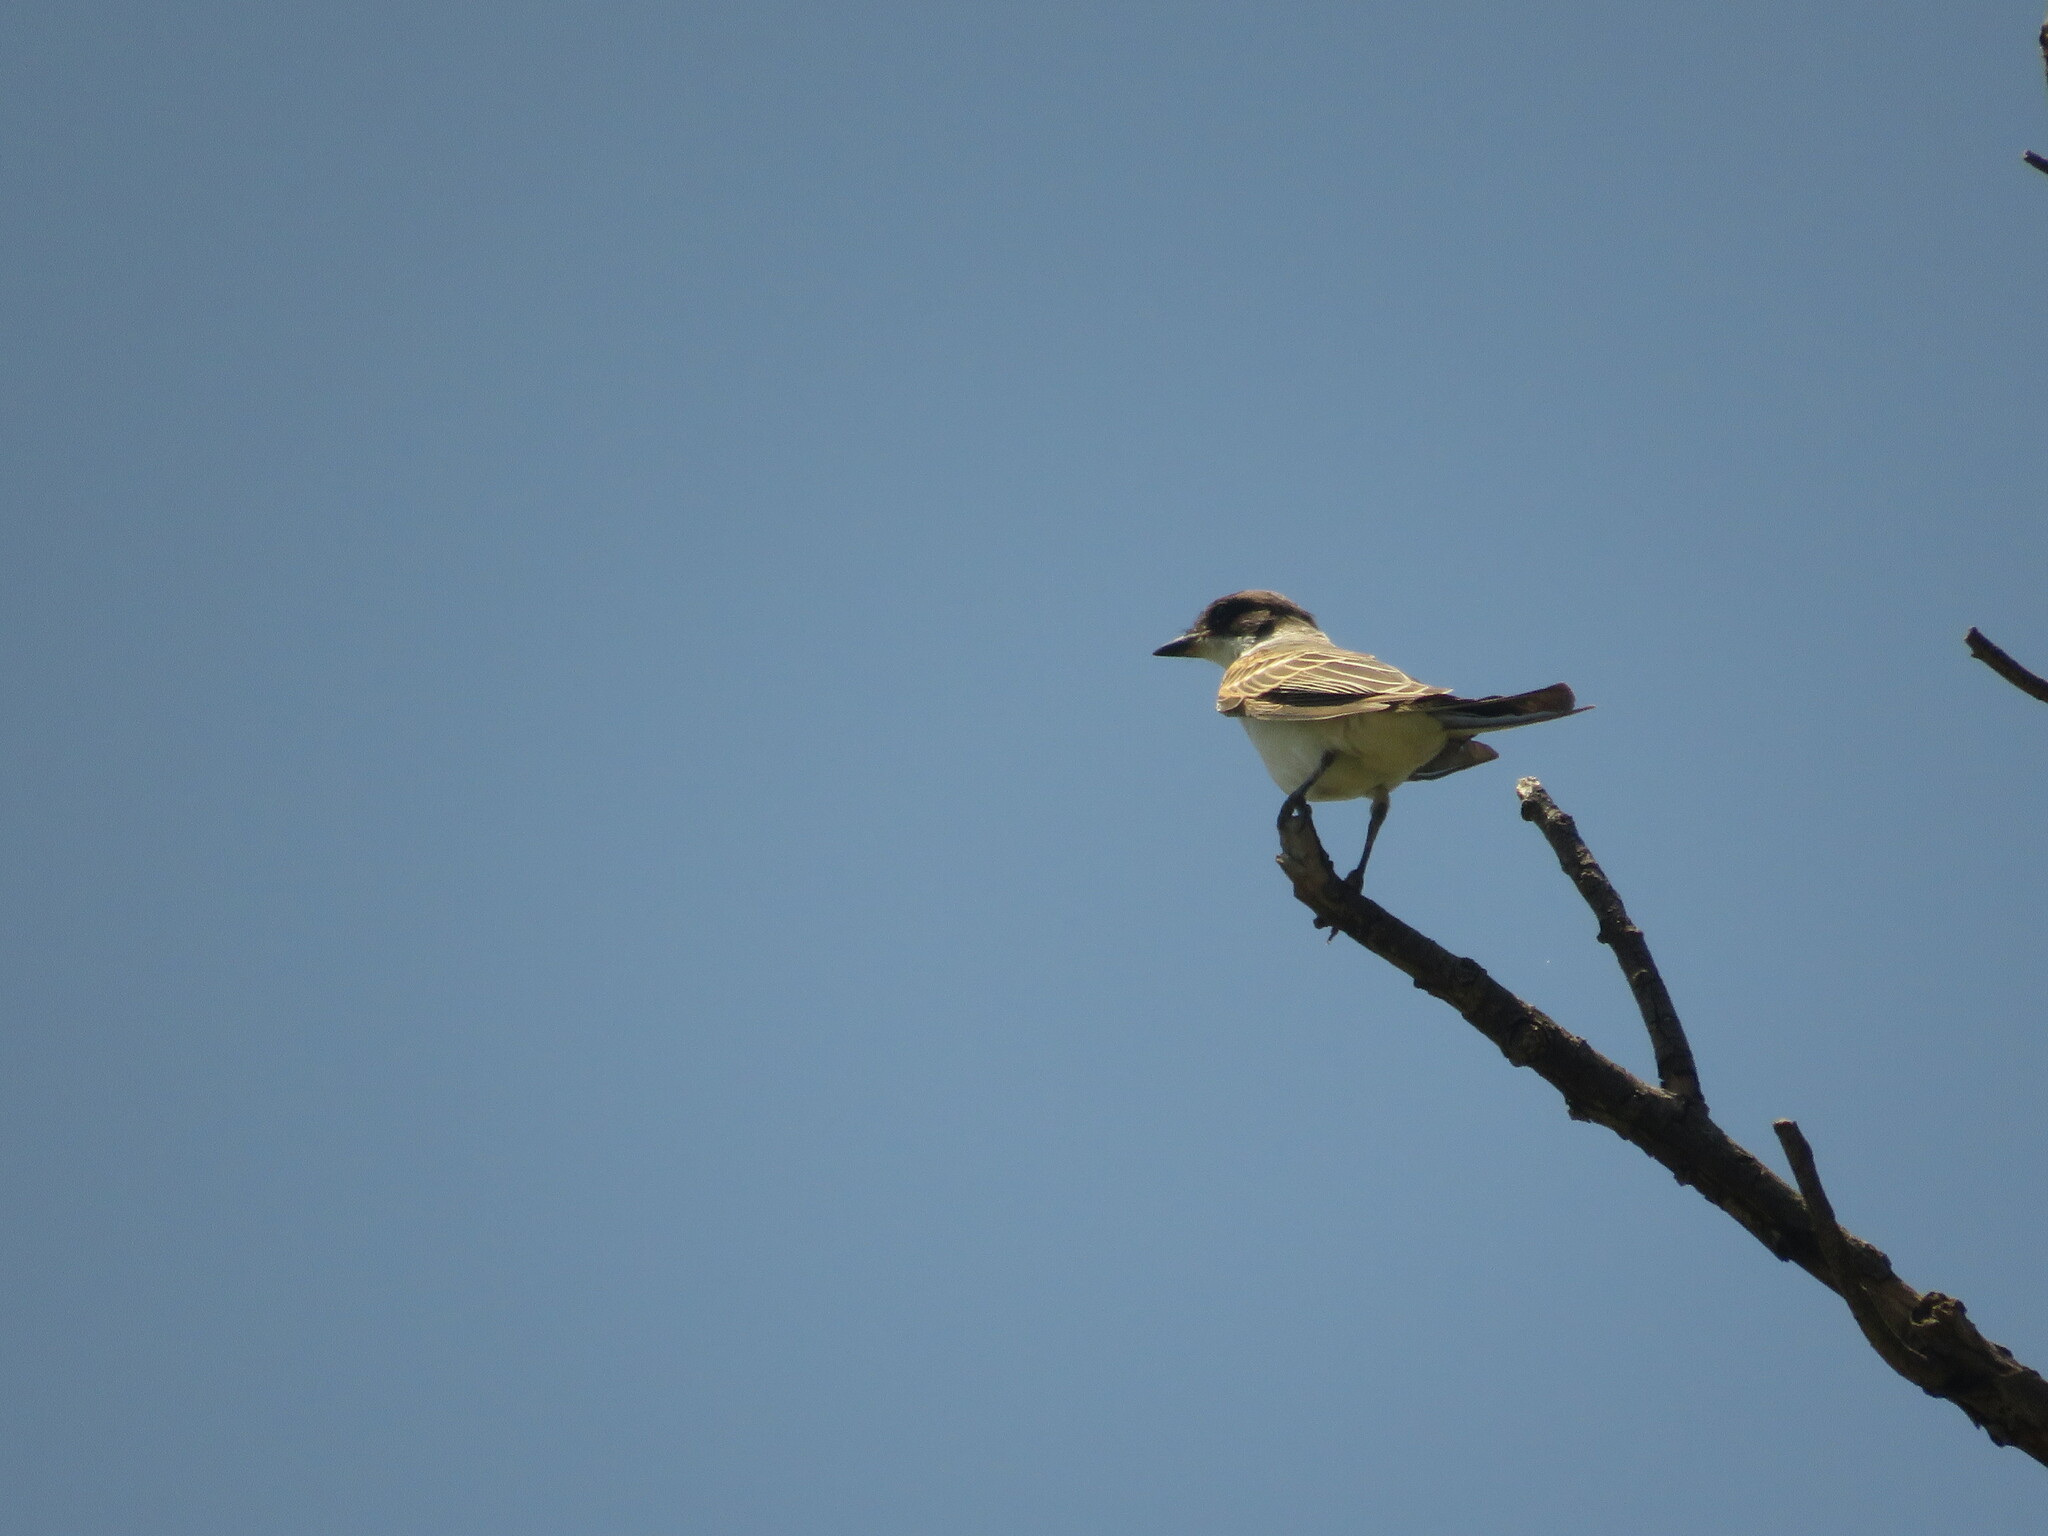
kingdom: Animalia
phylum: Chordata
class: Aves
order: Passeriformes
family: Tyrannidae
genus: Tyrannus
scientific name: Tyrannus savana
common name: Fork-tailed flycatcher
